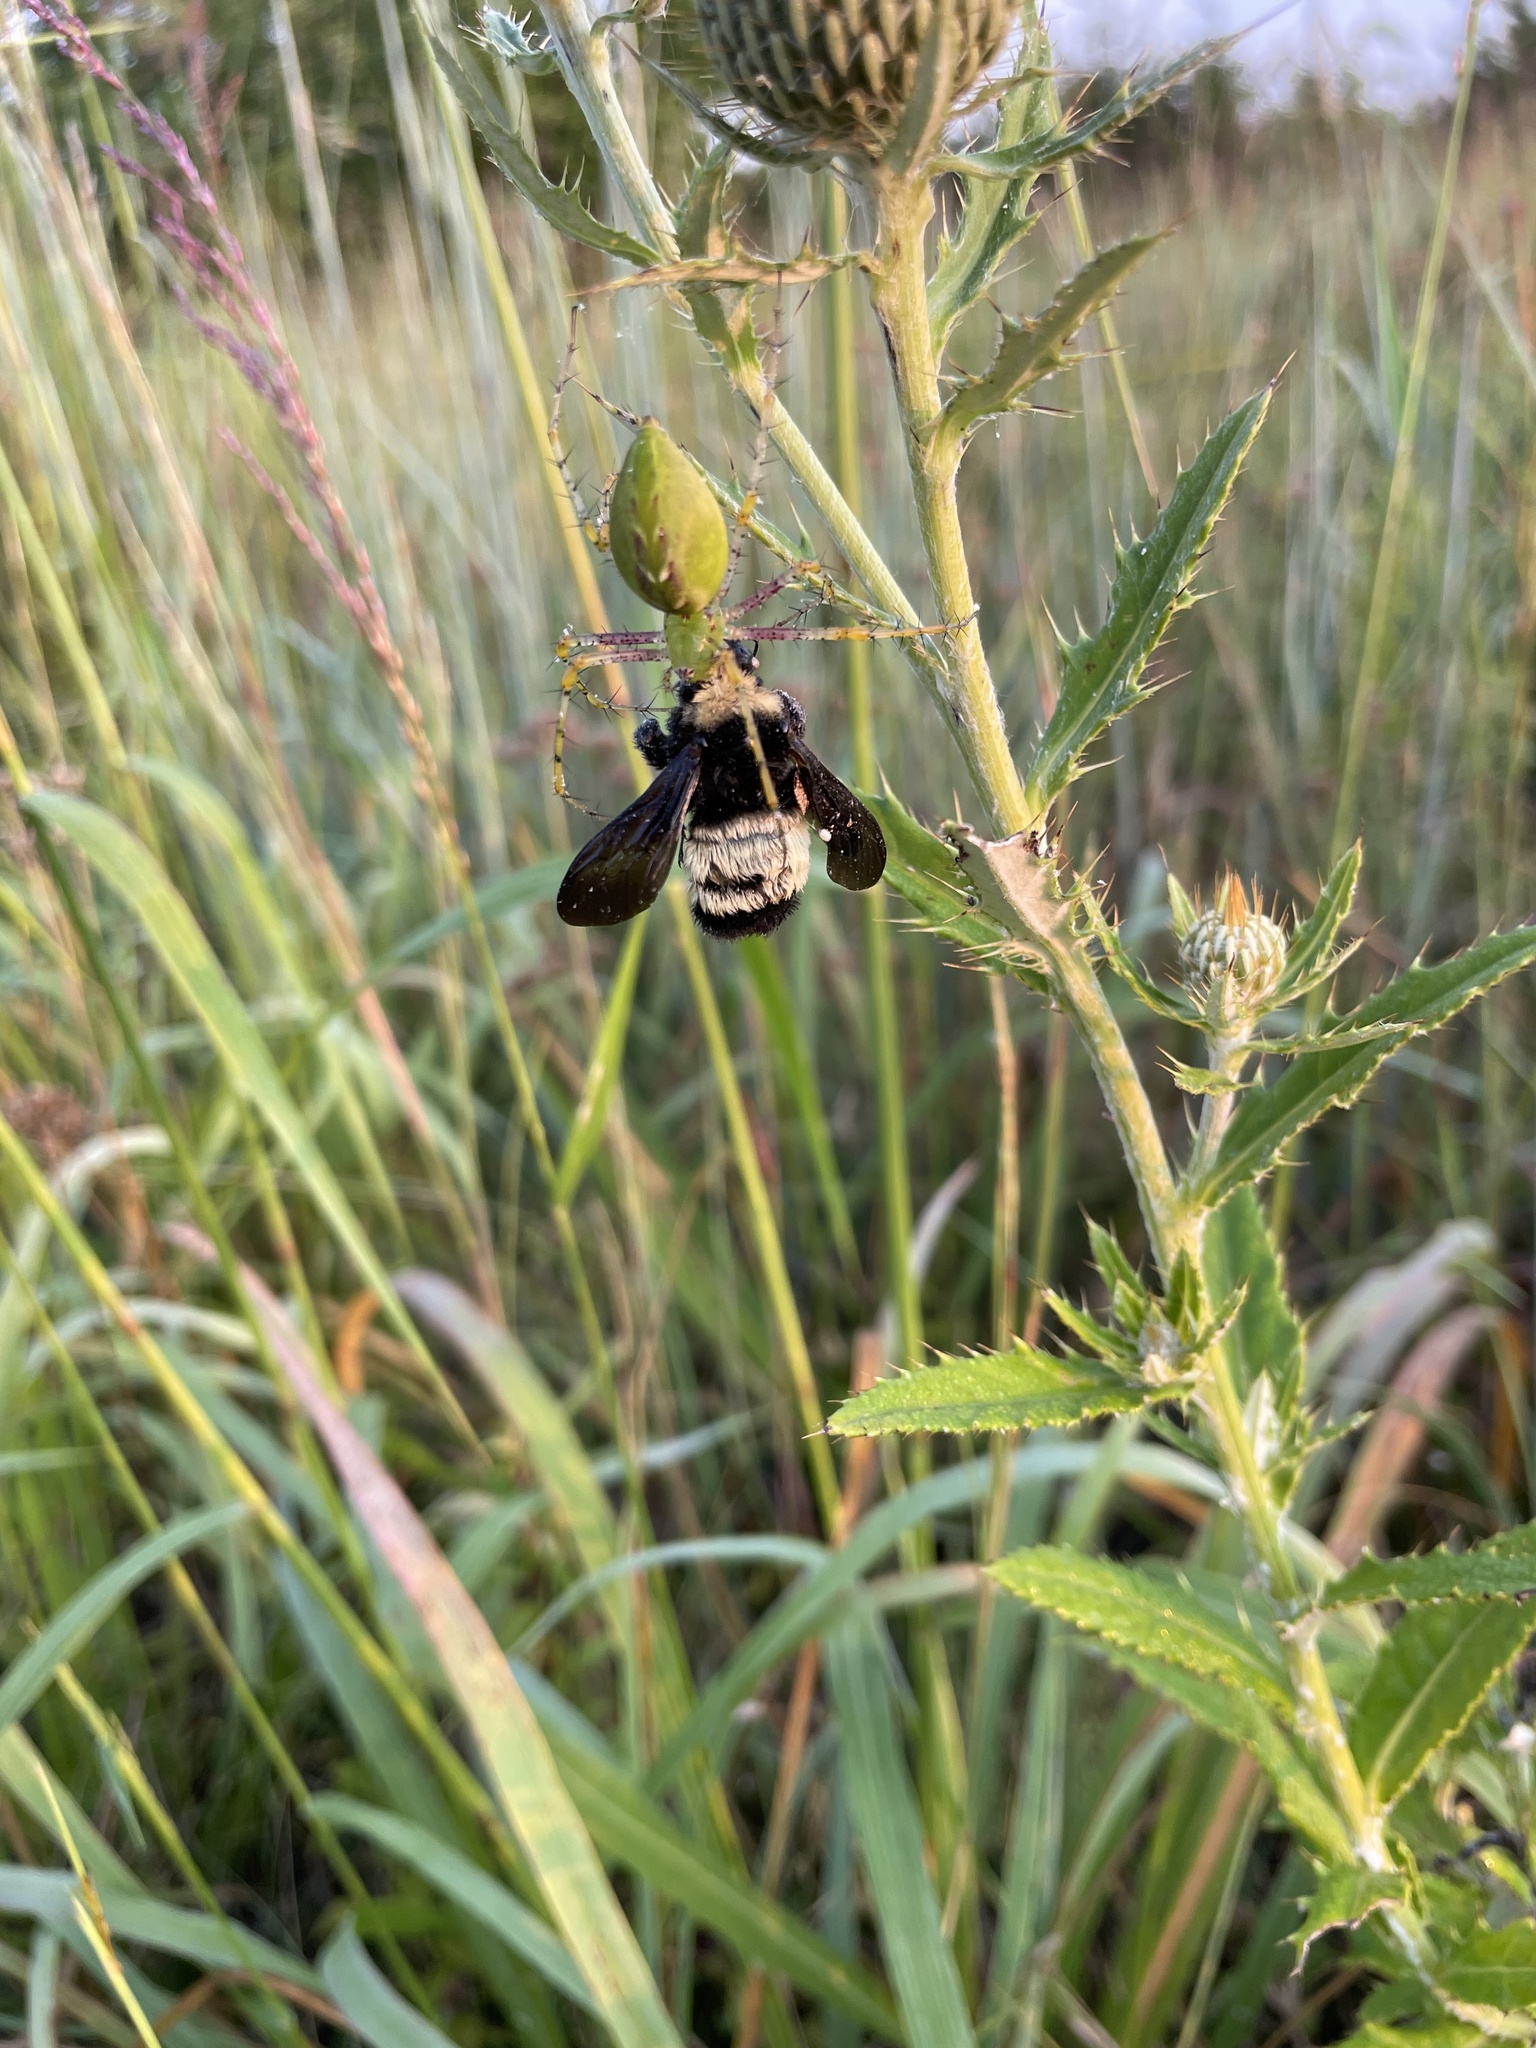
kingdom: Animalia
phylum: Arthropoda
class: Arachnida
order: Araneae
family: Oxyopidae
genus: Peucetia
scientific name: Peucetia viridans
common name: Lynx spiders
